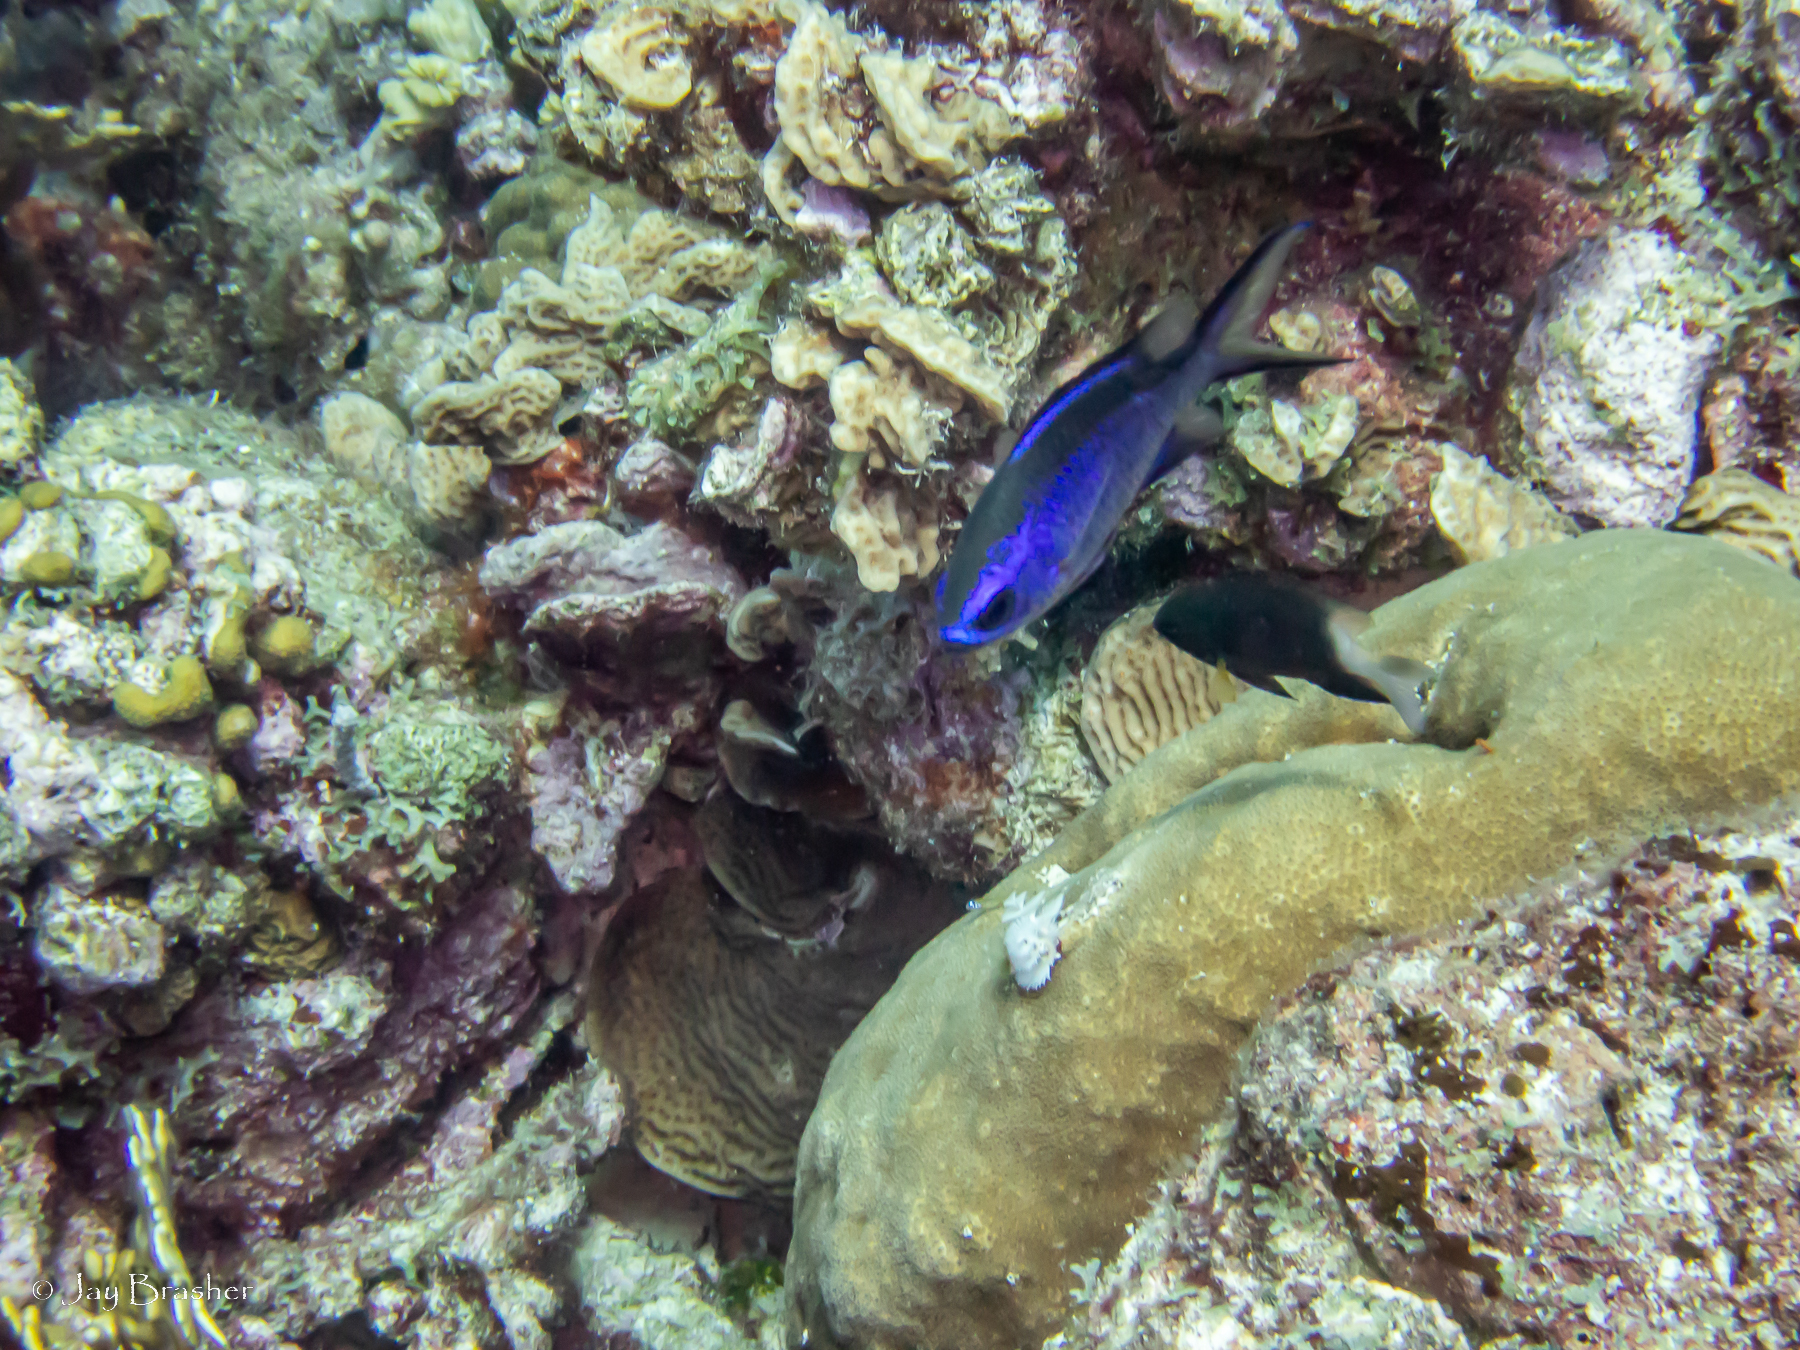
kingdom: Animalia
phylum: Chordata
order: Perciformes
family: Pomacentridae
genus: Chromis
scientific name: Chromis cyanea
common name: Blue chromis
